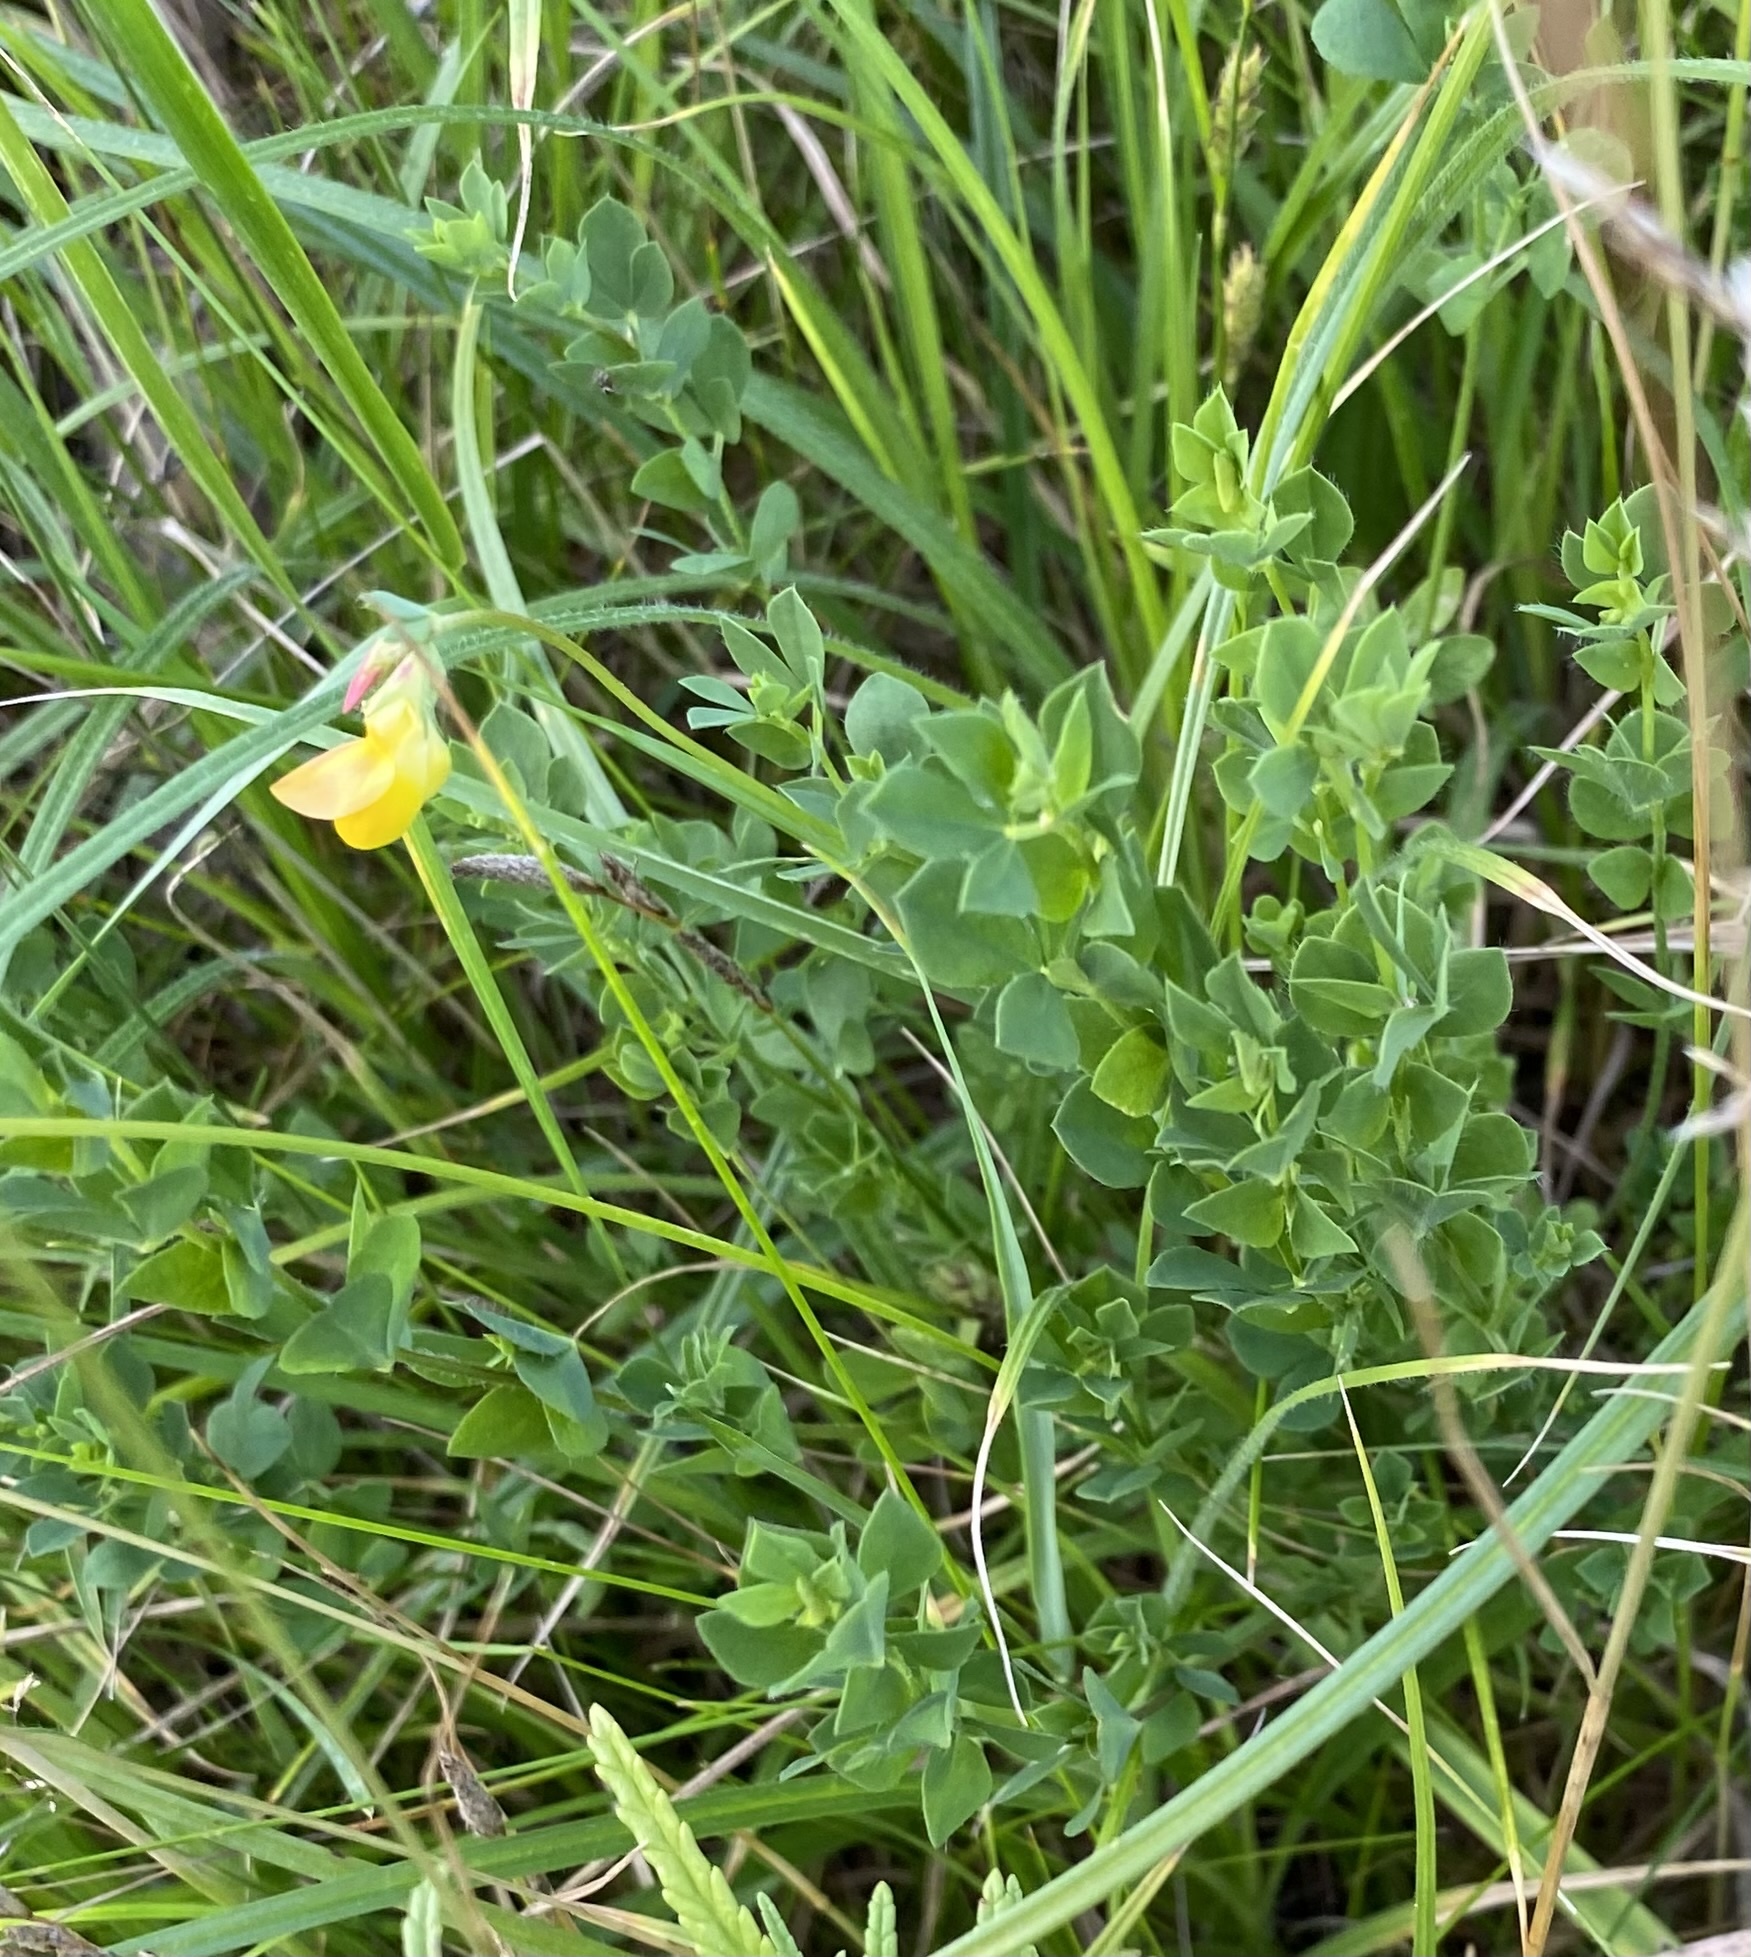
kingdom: Plantae
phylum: Tracheophyta
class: Magnoliopsida
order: Fabales
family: Fabaceae
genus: Lotus
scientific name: Lotus corniculatus
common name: Common bird's-foot-trefoil
